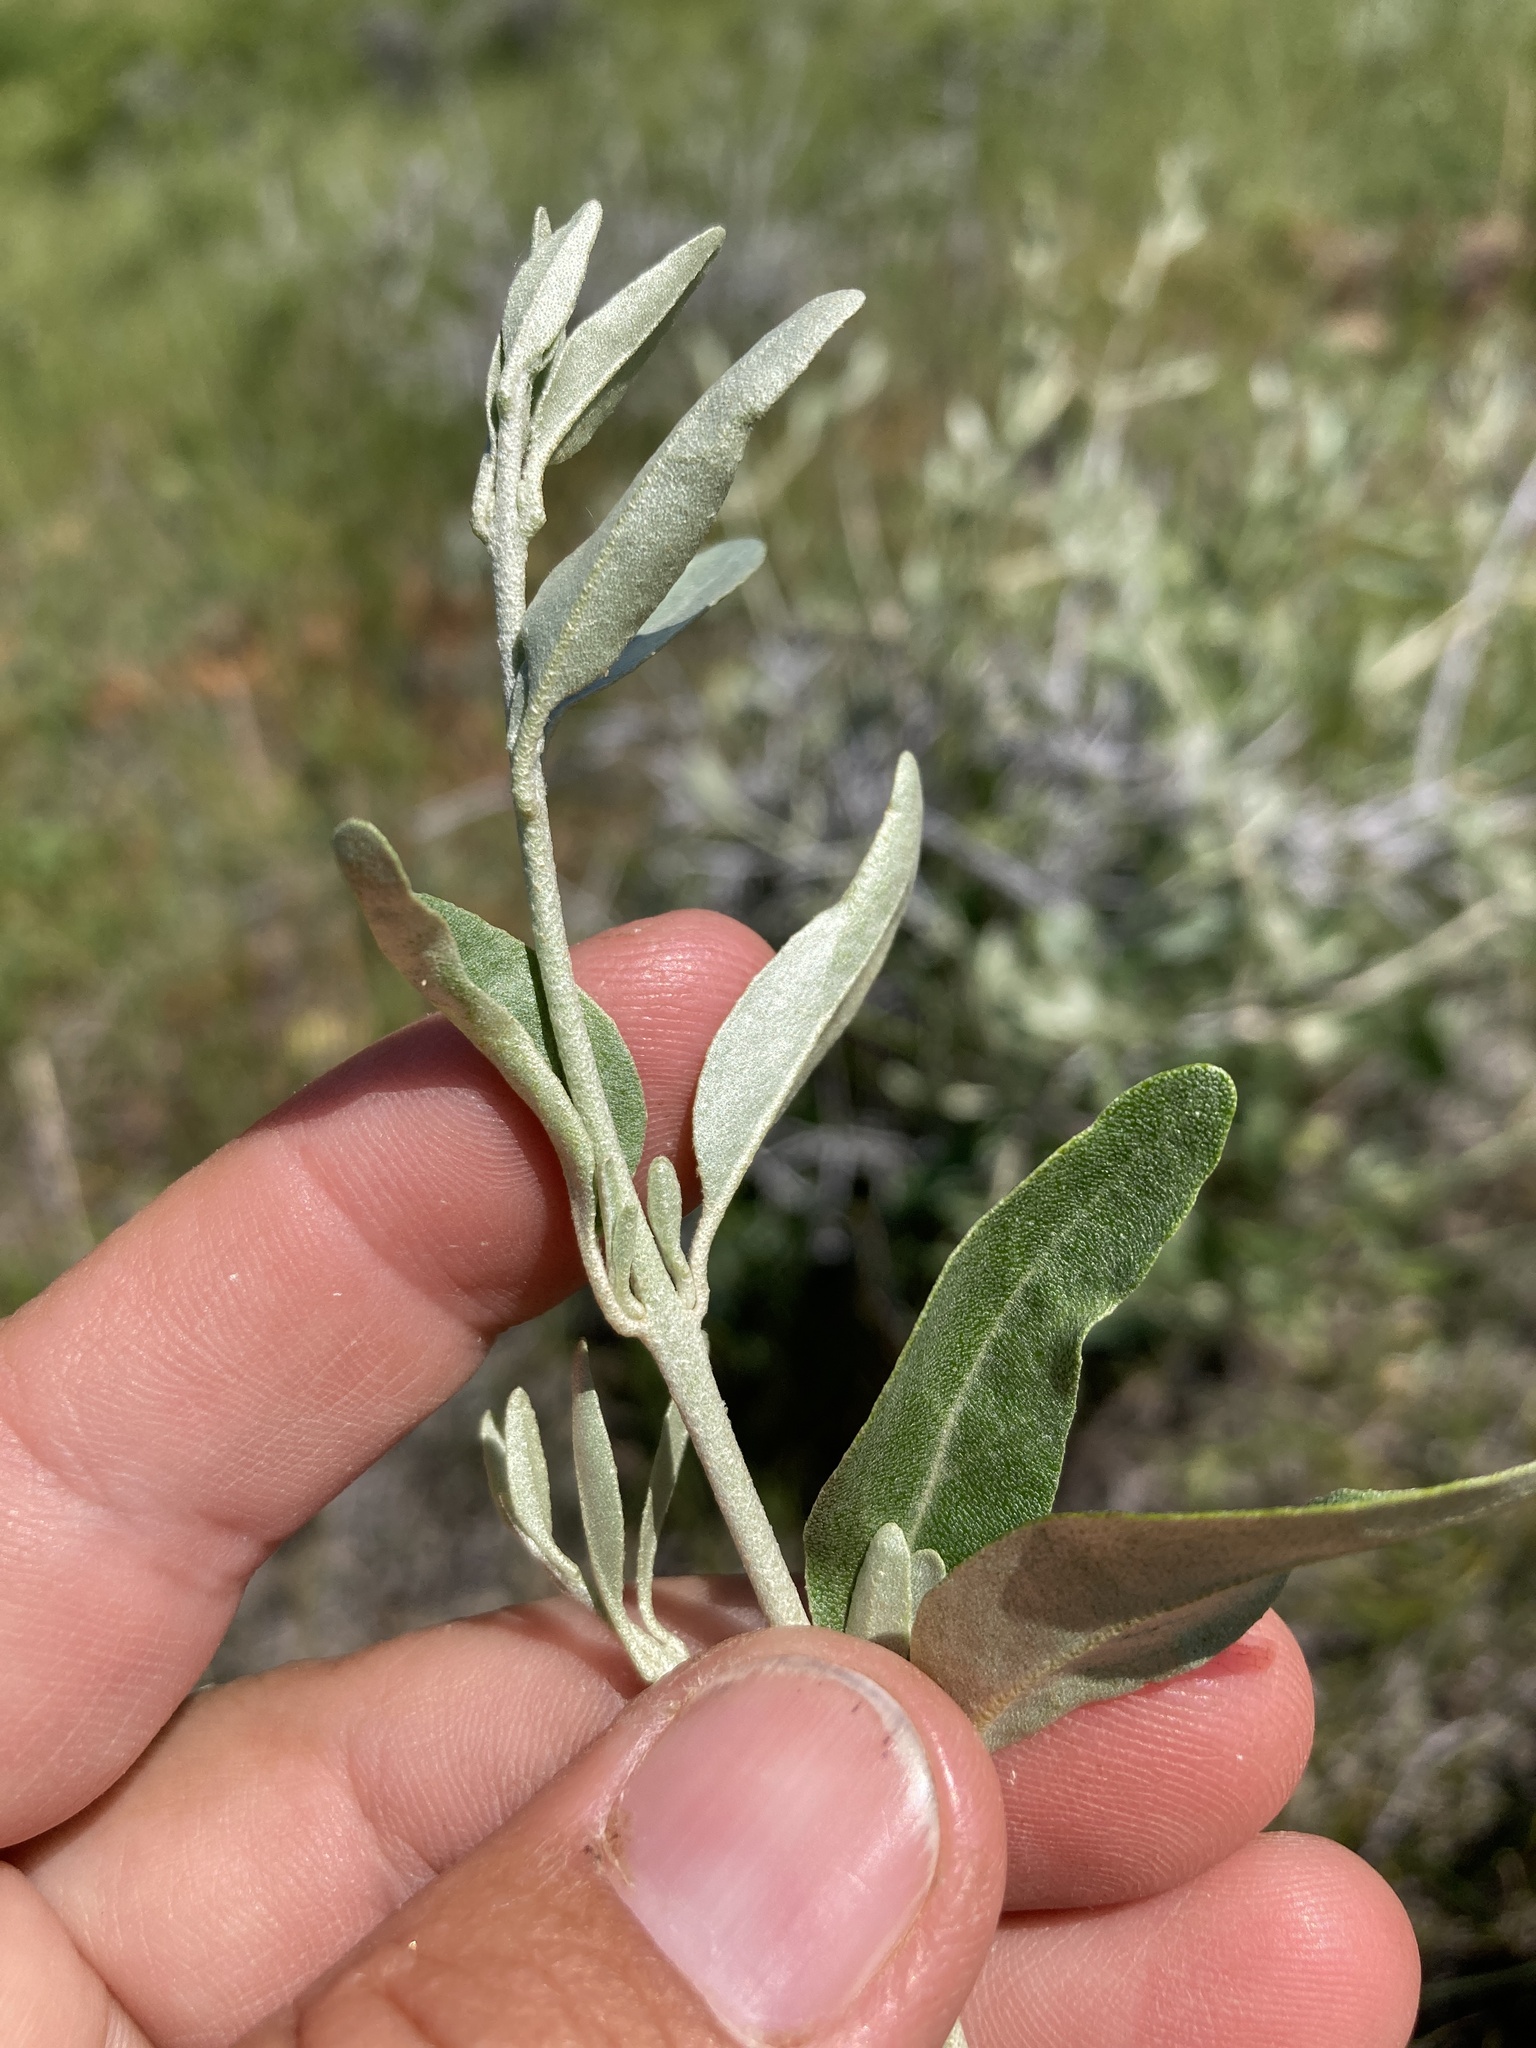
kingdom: Plantae
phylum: Tracheophyta
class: Magnoliopsida
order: Rosales
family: Elaeagnaceae
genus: Shepherdia
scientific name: Shepherdia argentea
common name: Silver buffaloberry
